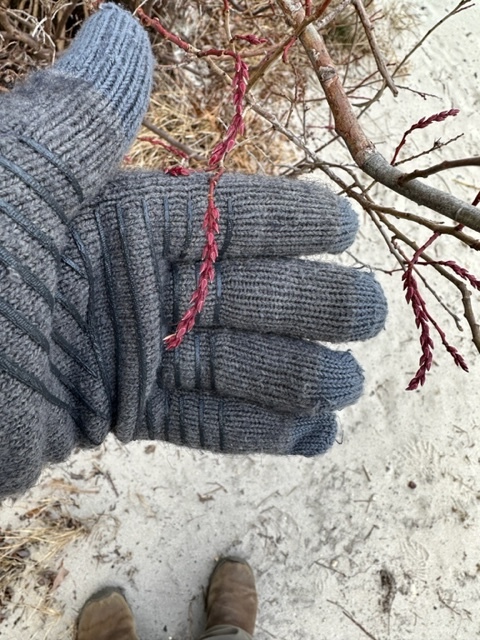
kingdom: Plantae
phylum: Tracheophyta
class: Magnoliopsida
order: Ericales
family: Ericaceae
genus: Eubotrys
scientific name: Eubotrys racemosa
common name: Fetterbush
